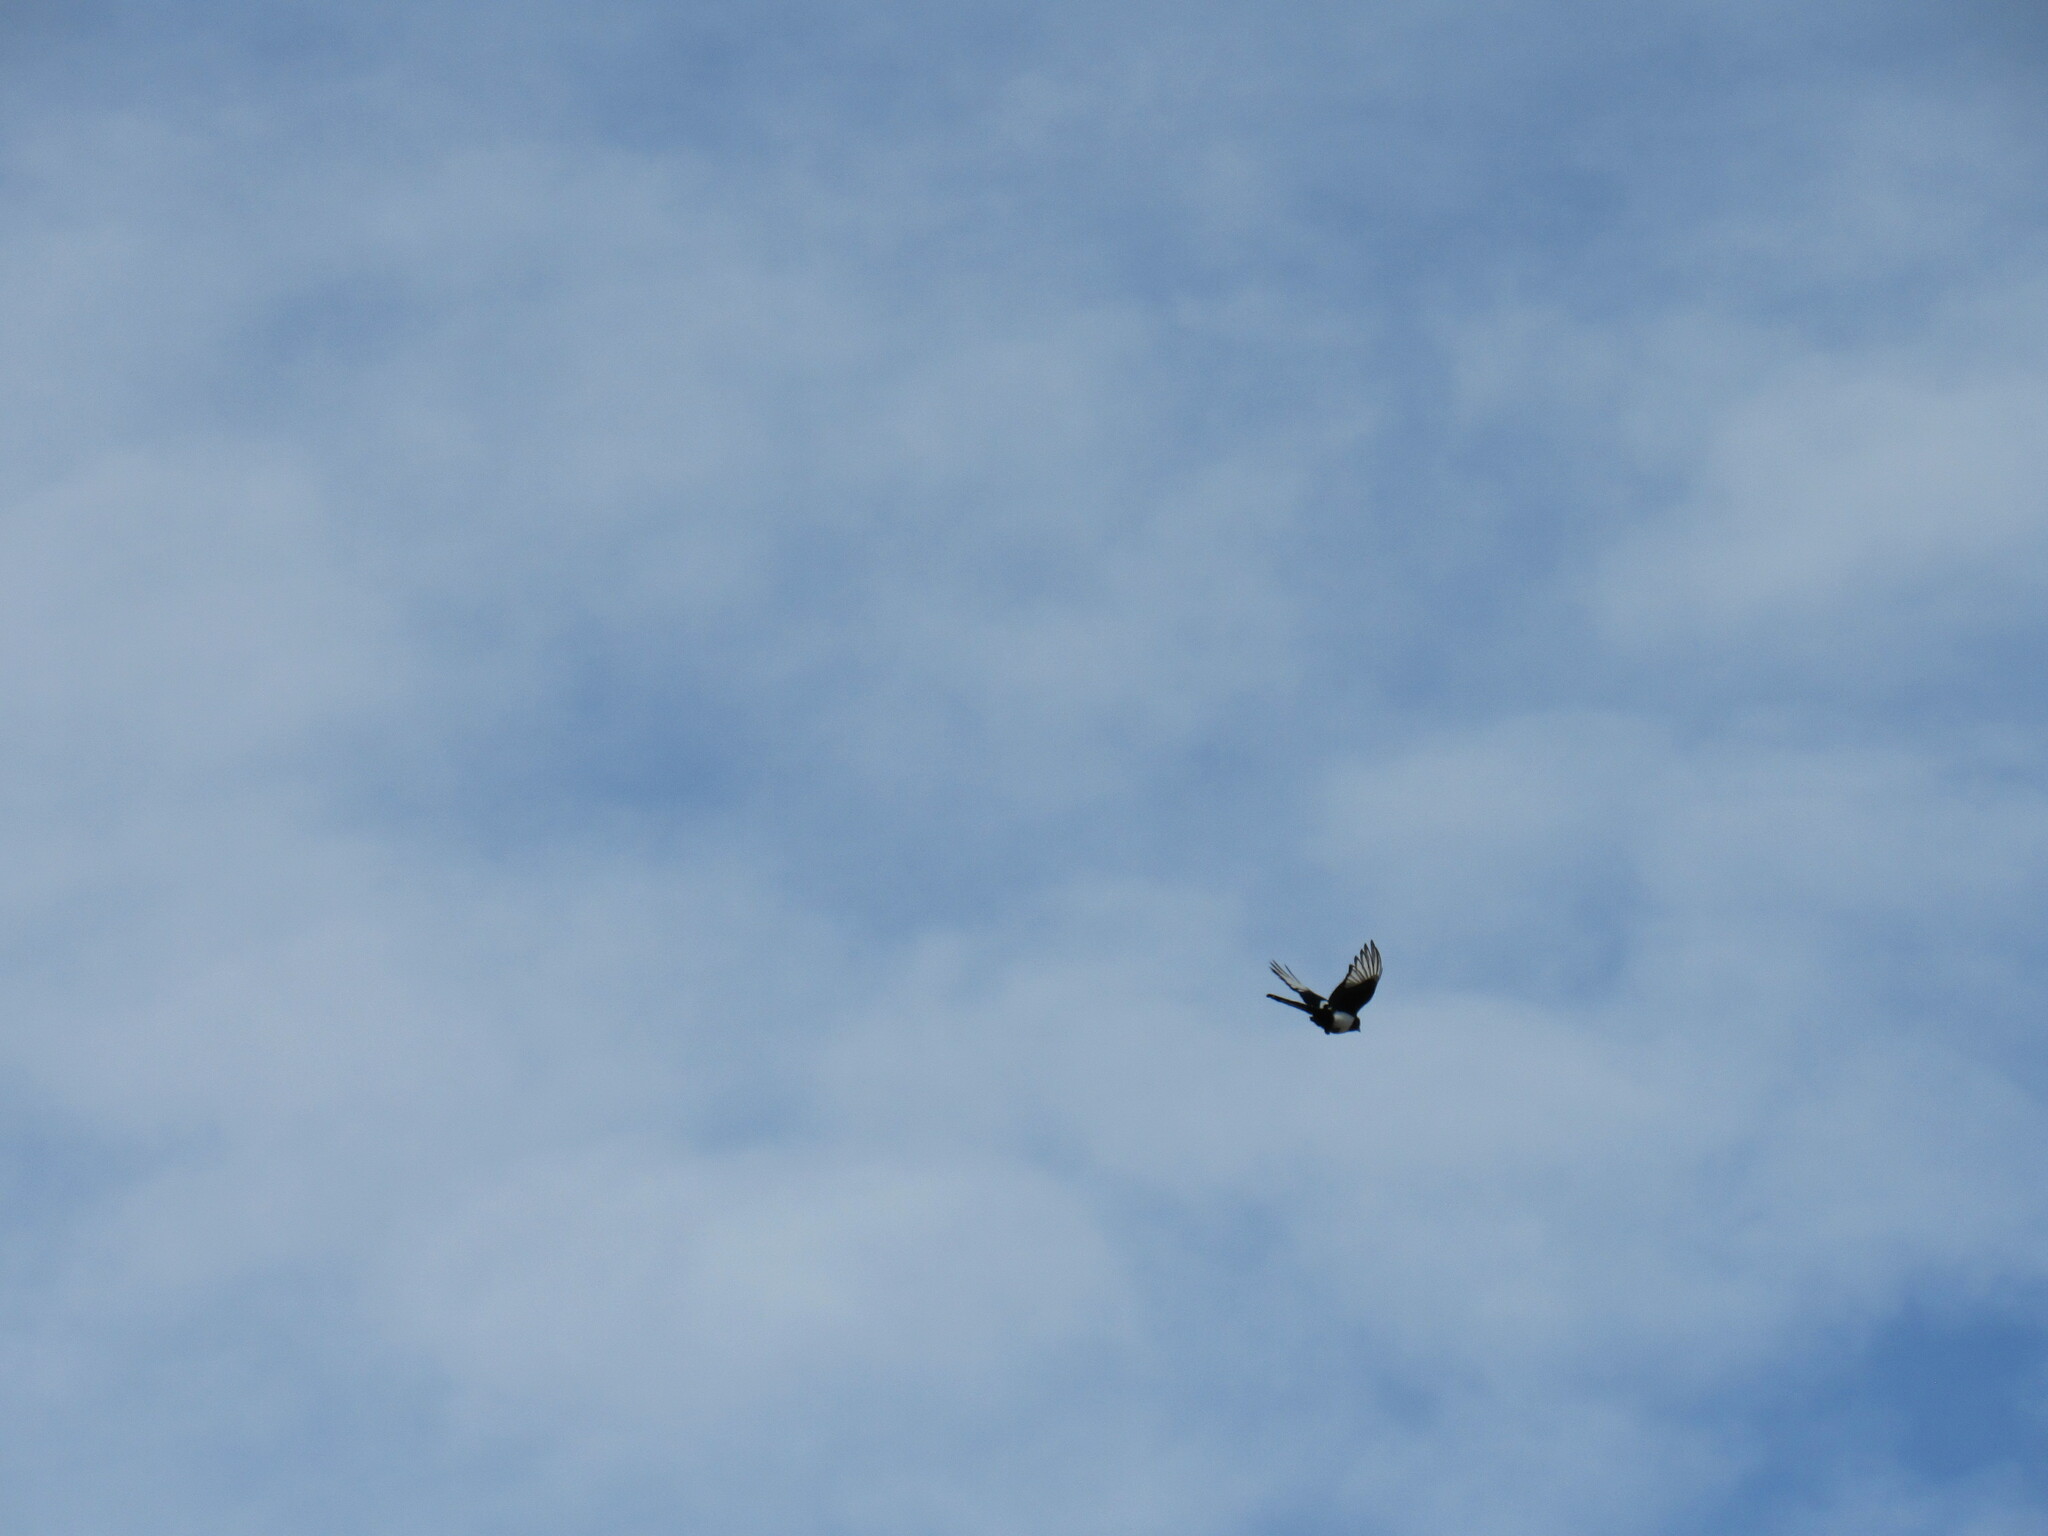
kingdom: Animalia
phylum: Chordata
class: Aves
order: Passeriformes
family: Corvidae
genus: Pica
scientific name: Pica hudsonia
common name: Black-billed magpie
